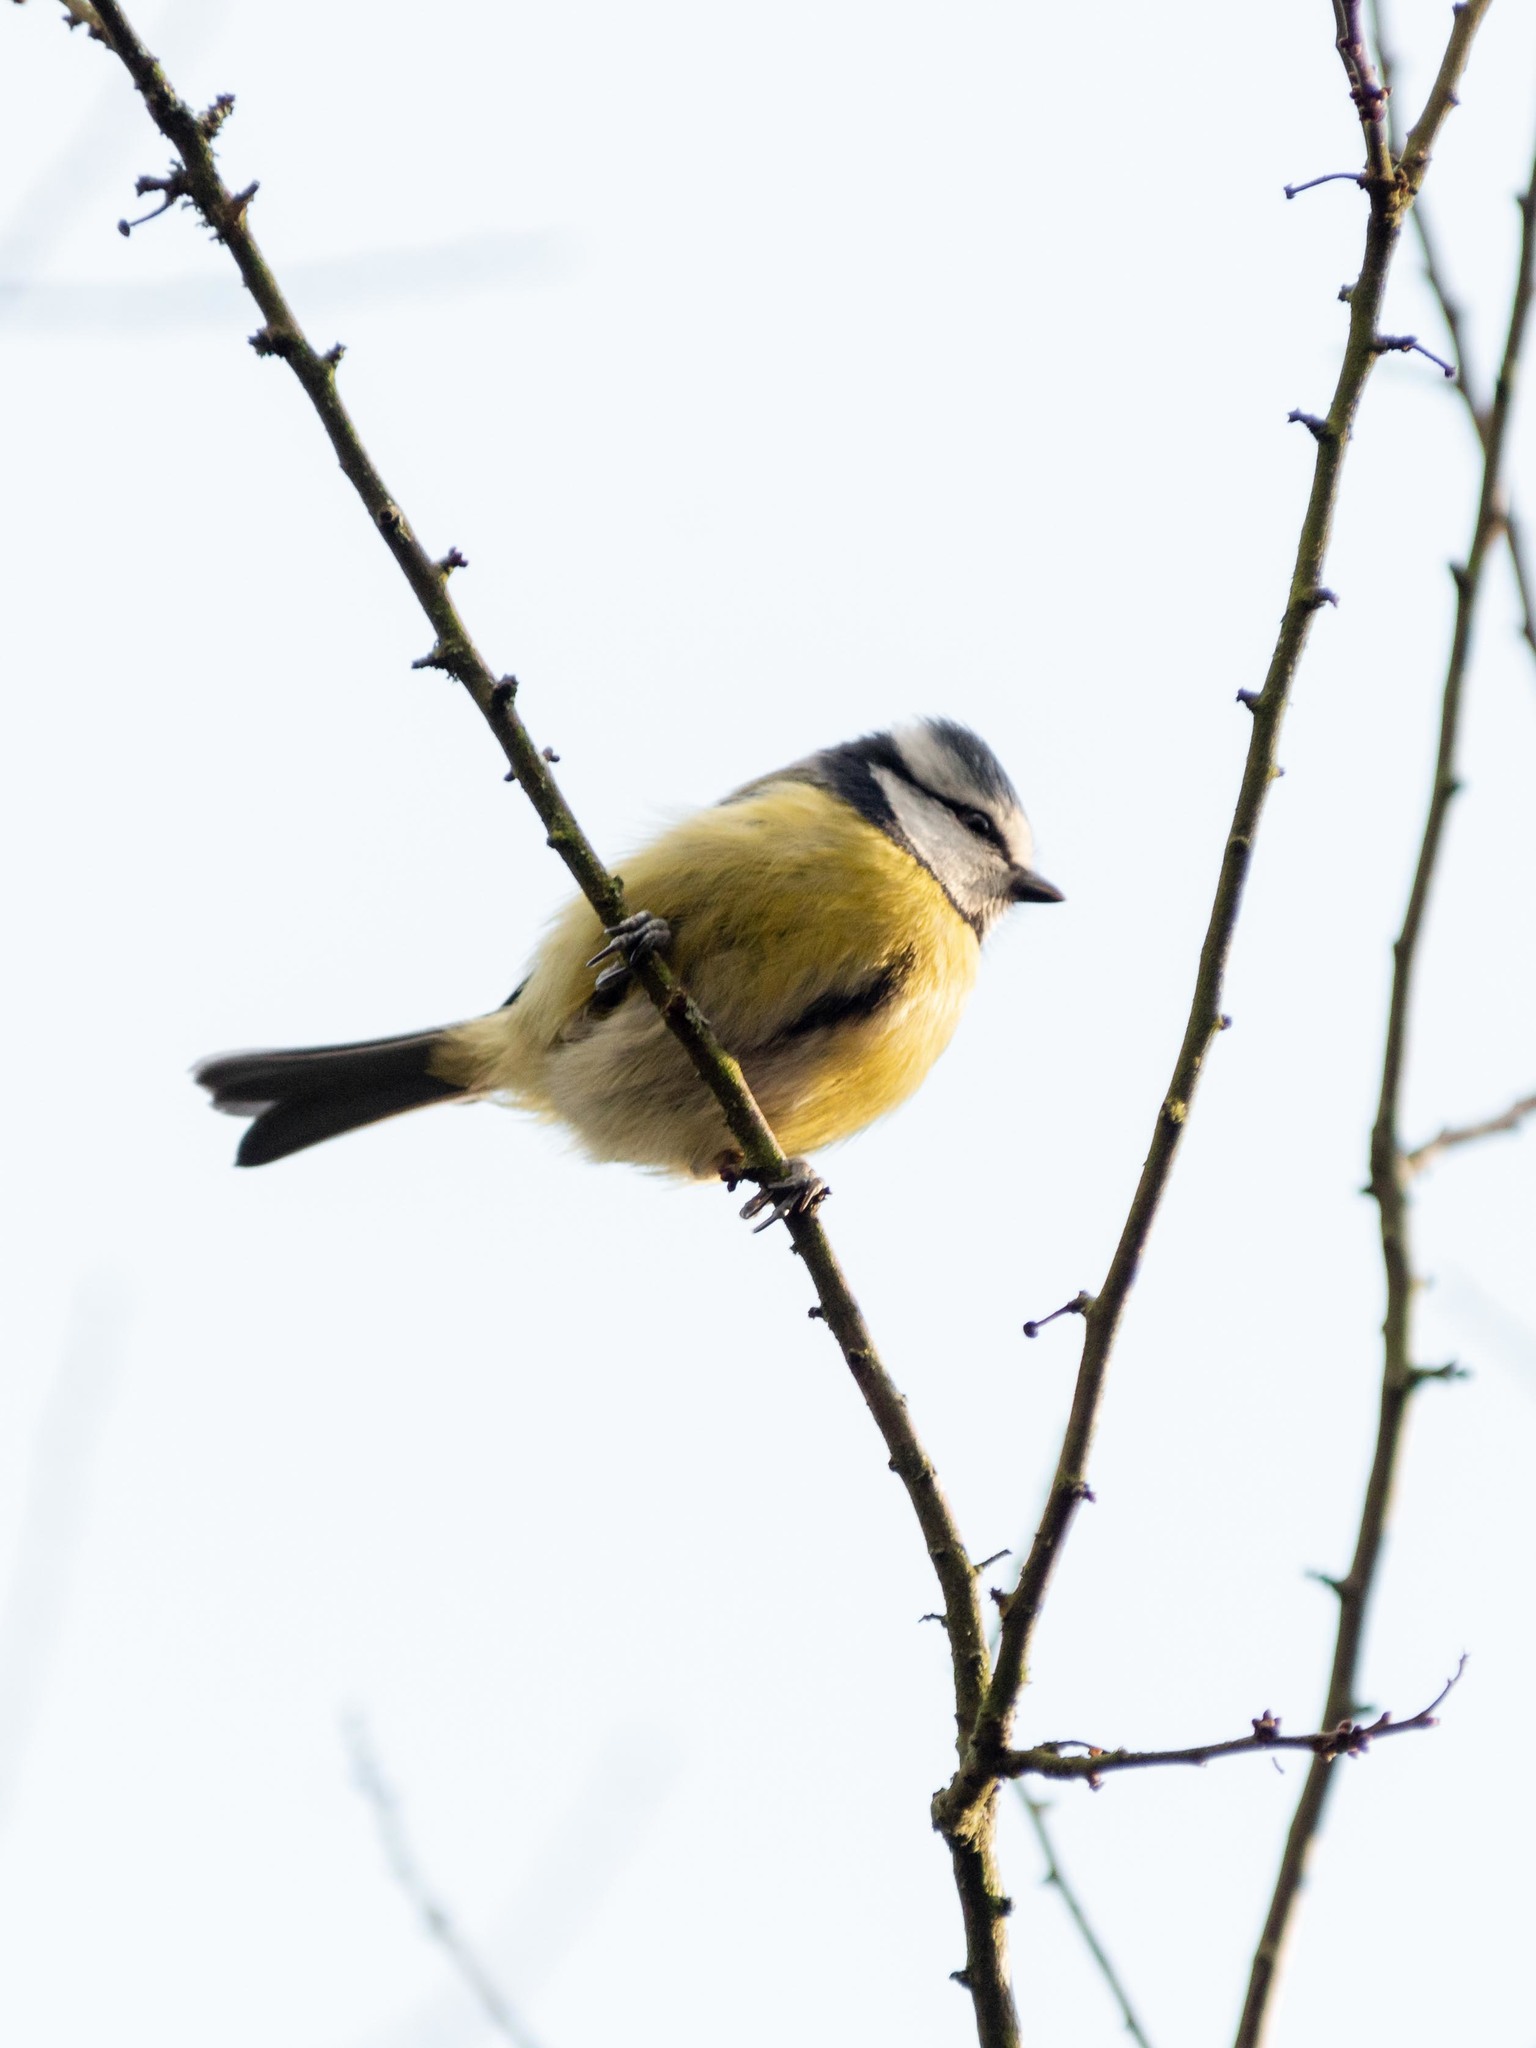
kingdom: Animalia
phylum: Chordata
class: Aves
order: Passeriformes
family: Paridae
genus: Cyanistes
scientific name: Cyanistes caeruleus
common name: Eurasian blue tit
